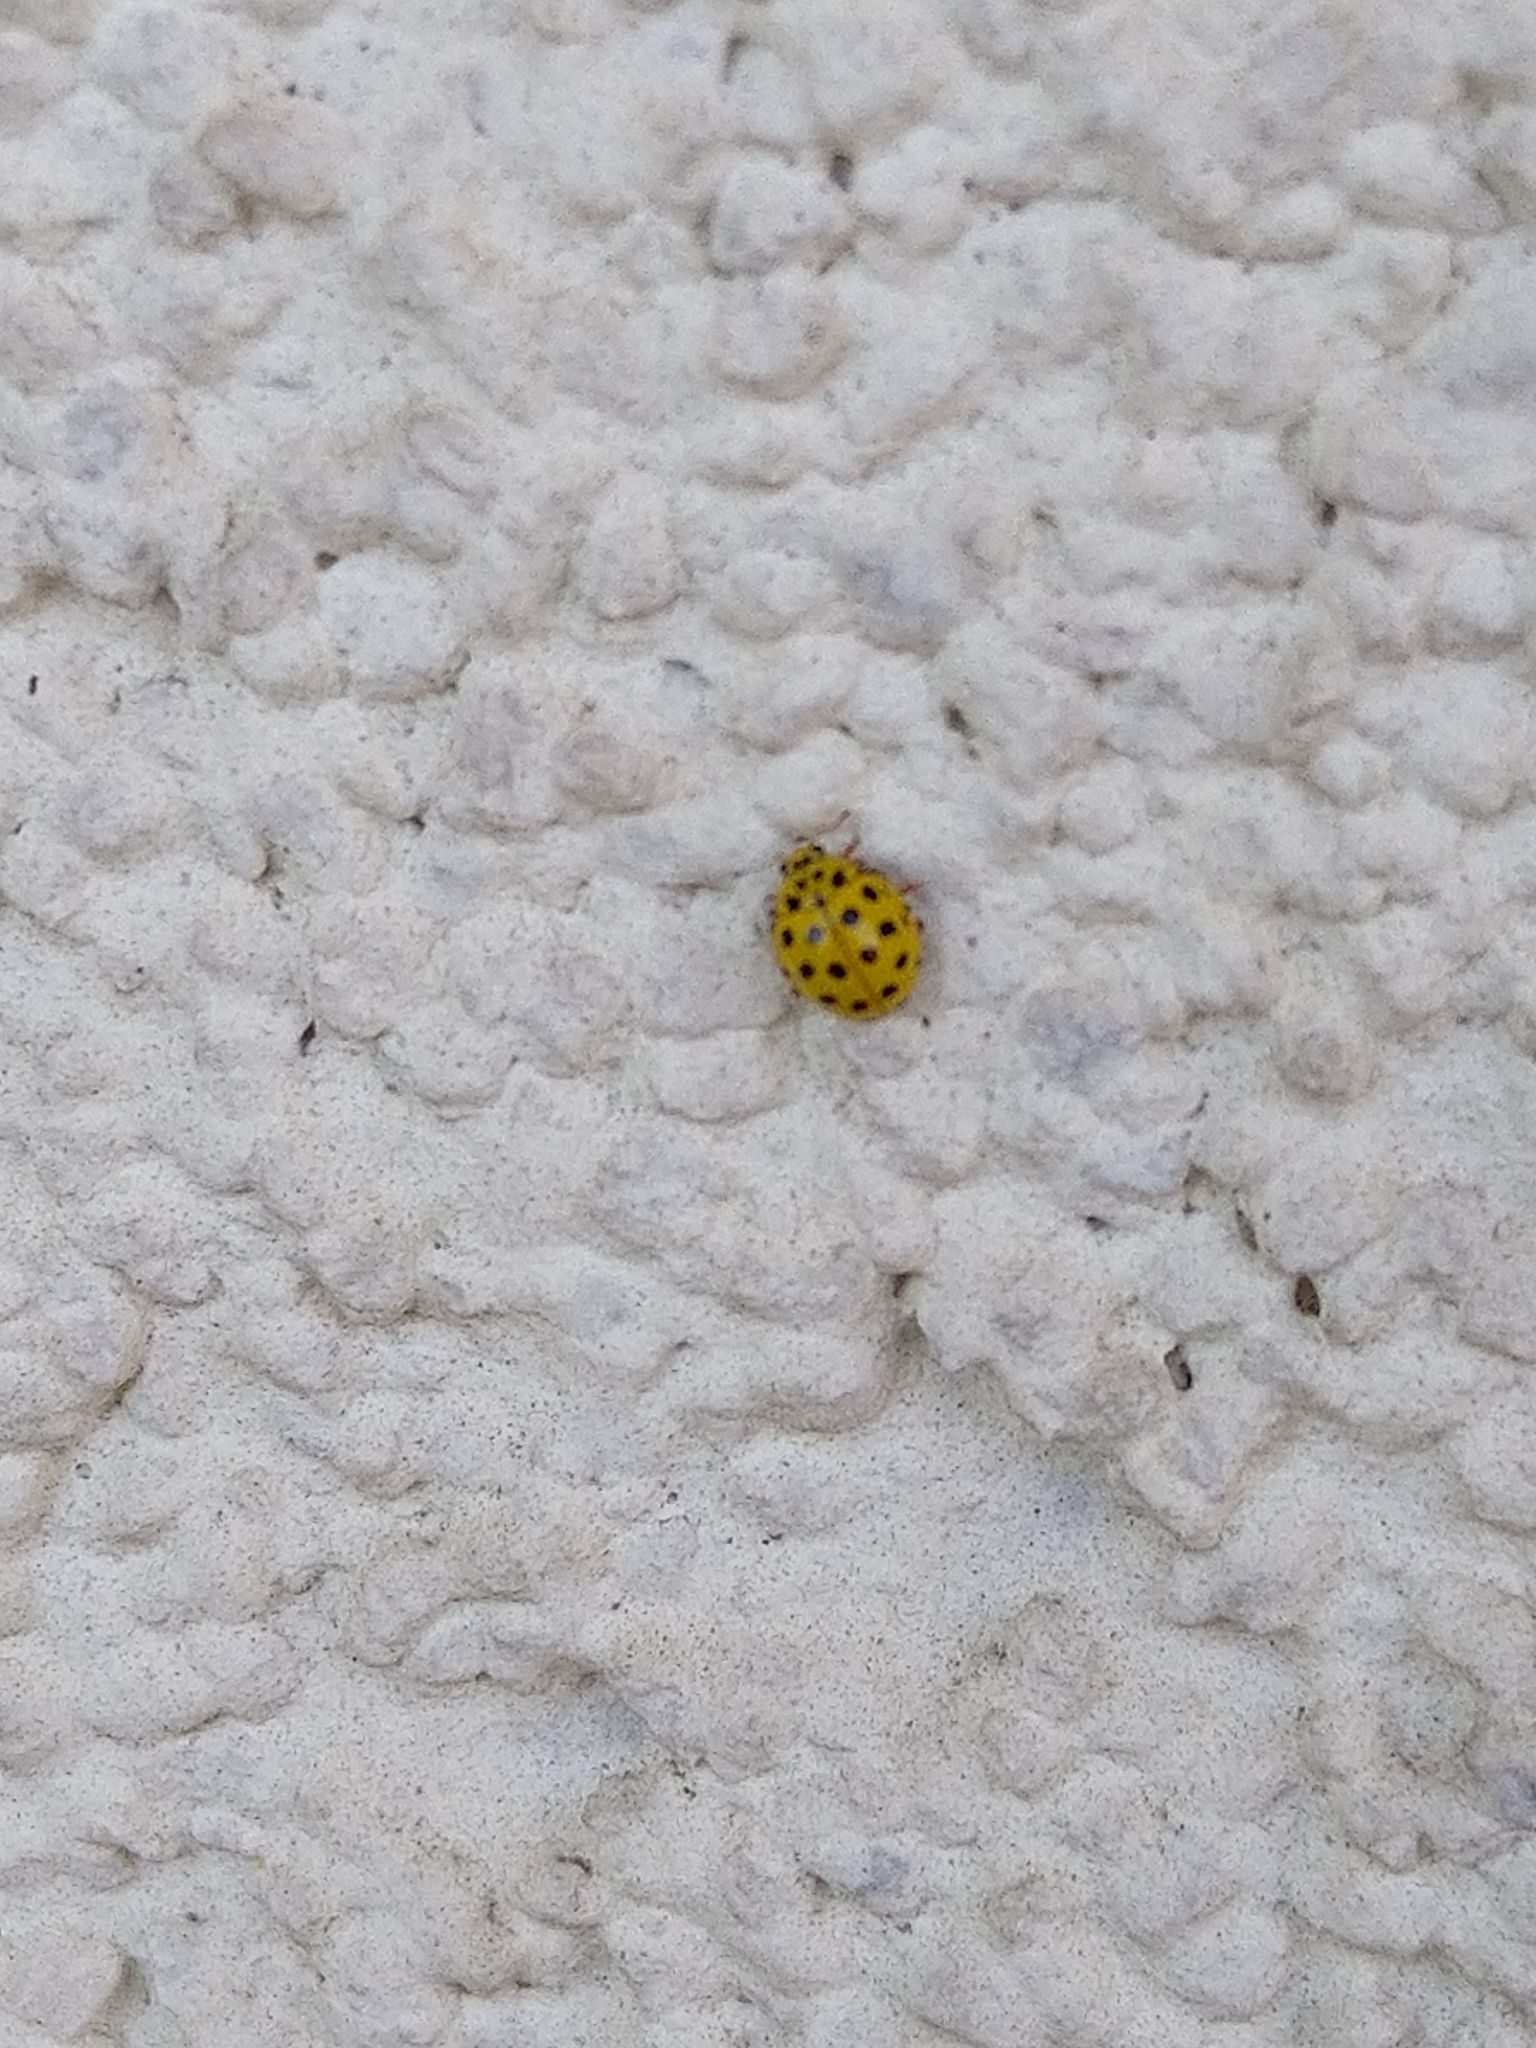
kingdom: Animalia
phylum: Arthropoda
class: Insecta
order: Coleoptera
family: Coccinellidae
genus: Psyllobora
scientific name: Psyllobora vigintiduopunctata
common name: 22-spot ladybird
